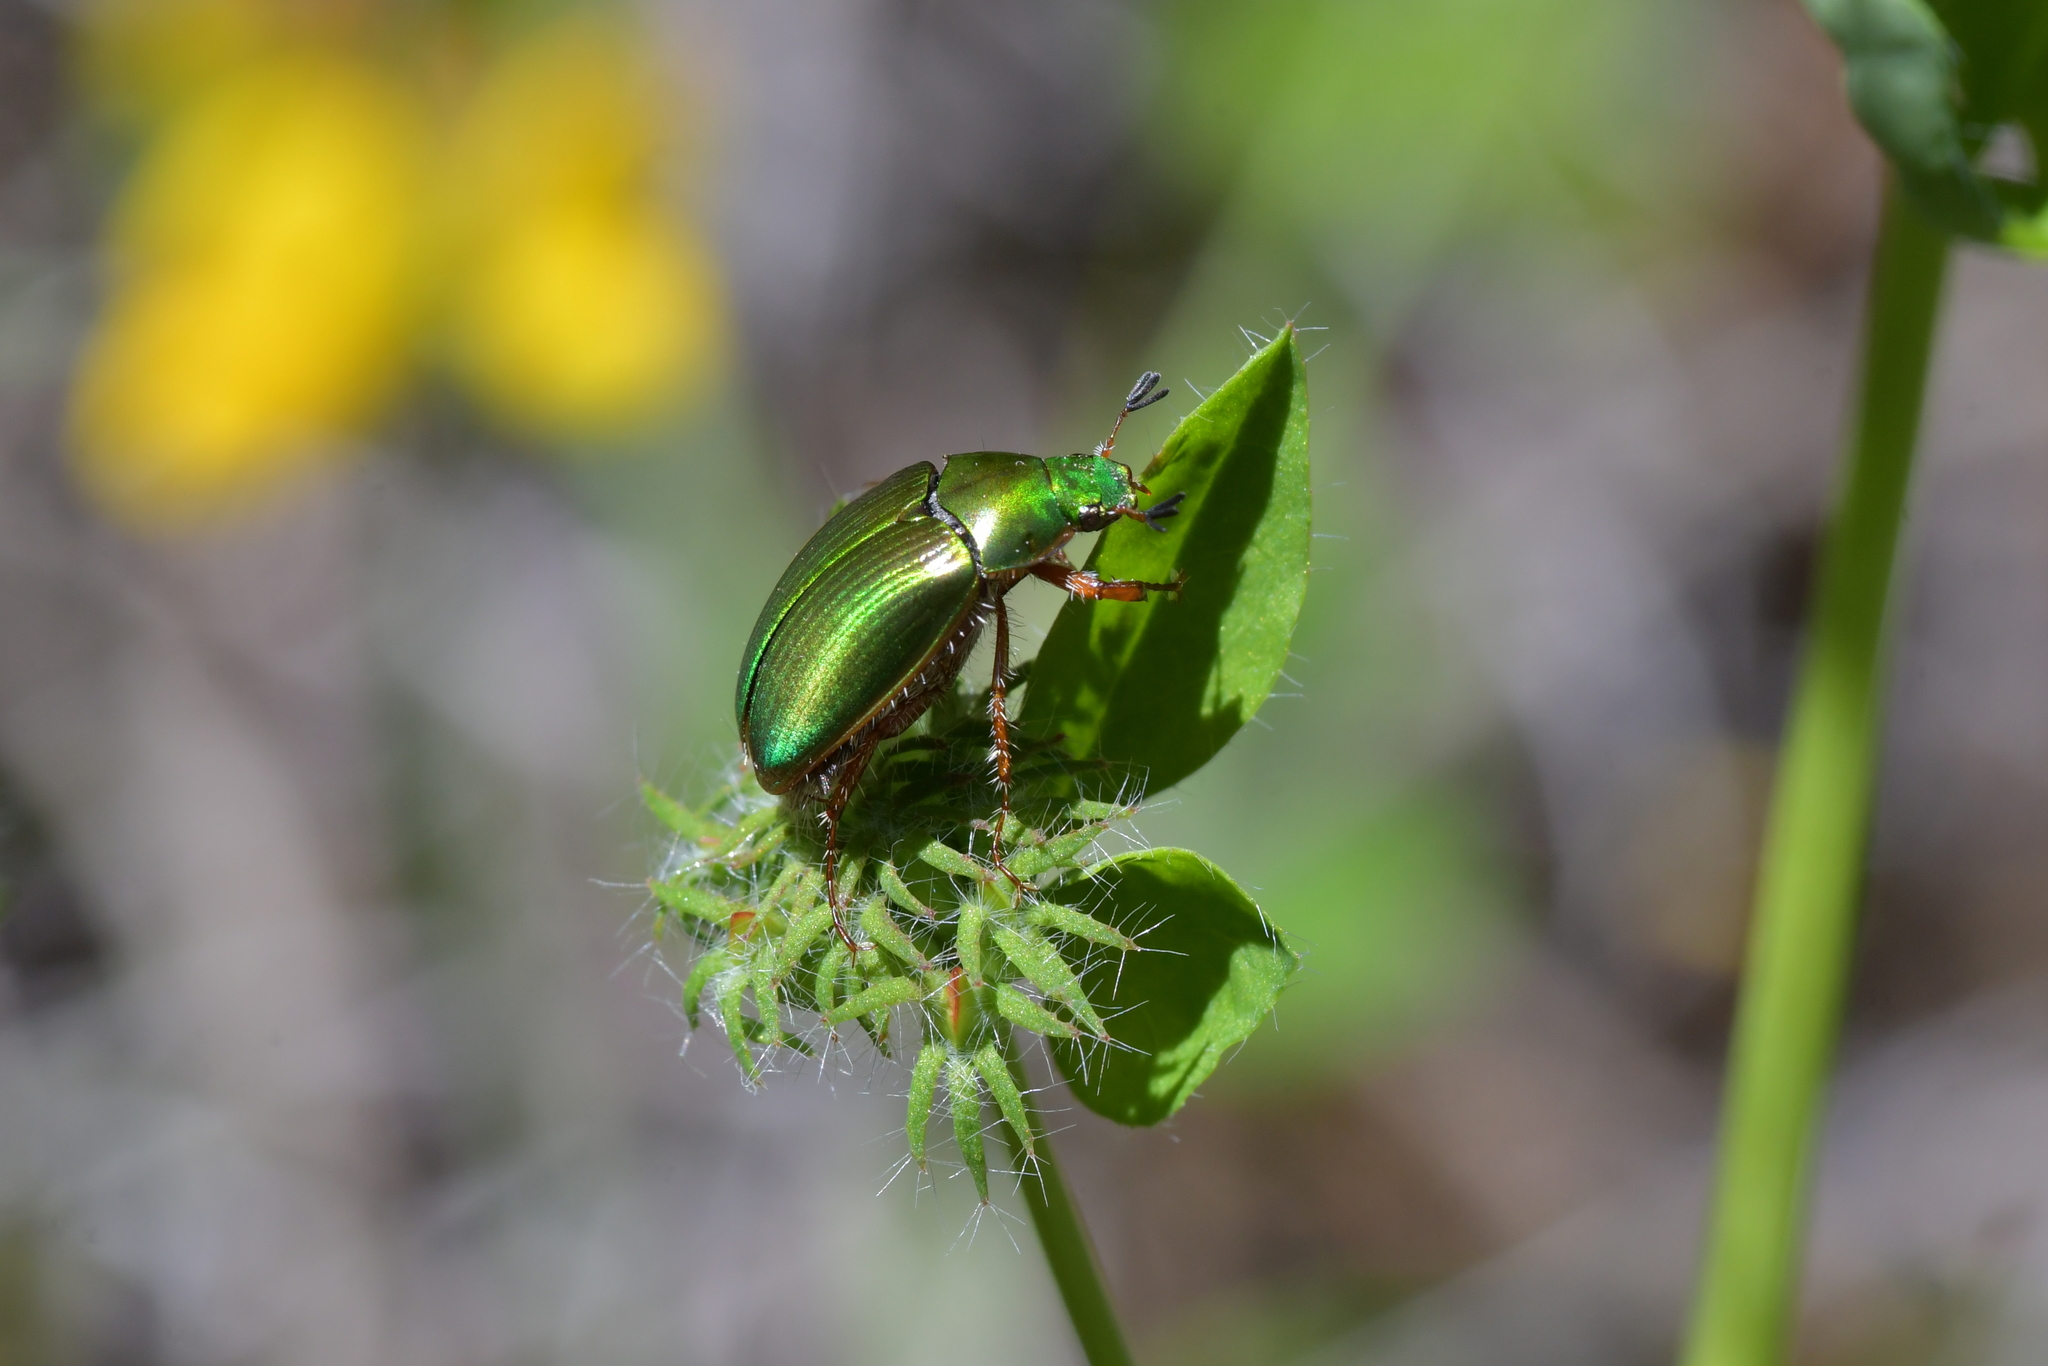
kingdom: Animalia
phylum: Arthropoda
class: Insecta
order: Coleoptera
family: Scarabaeidae
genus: Pyronota
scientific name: Pyronota festiva
